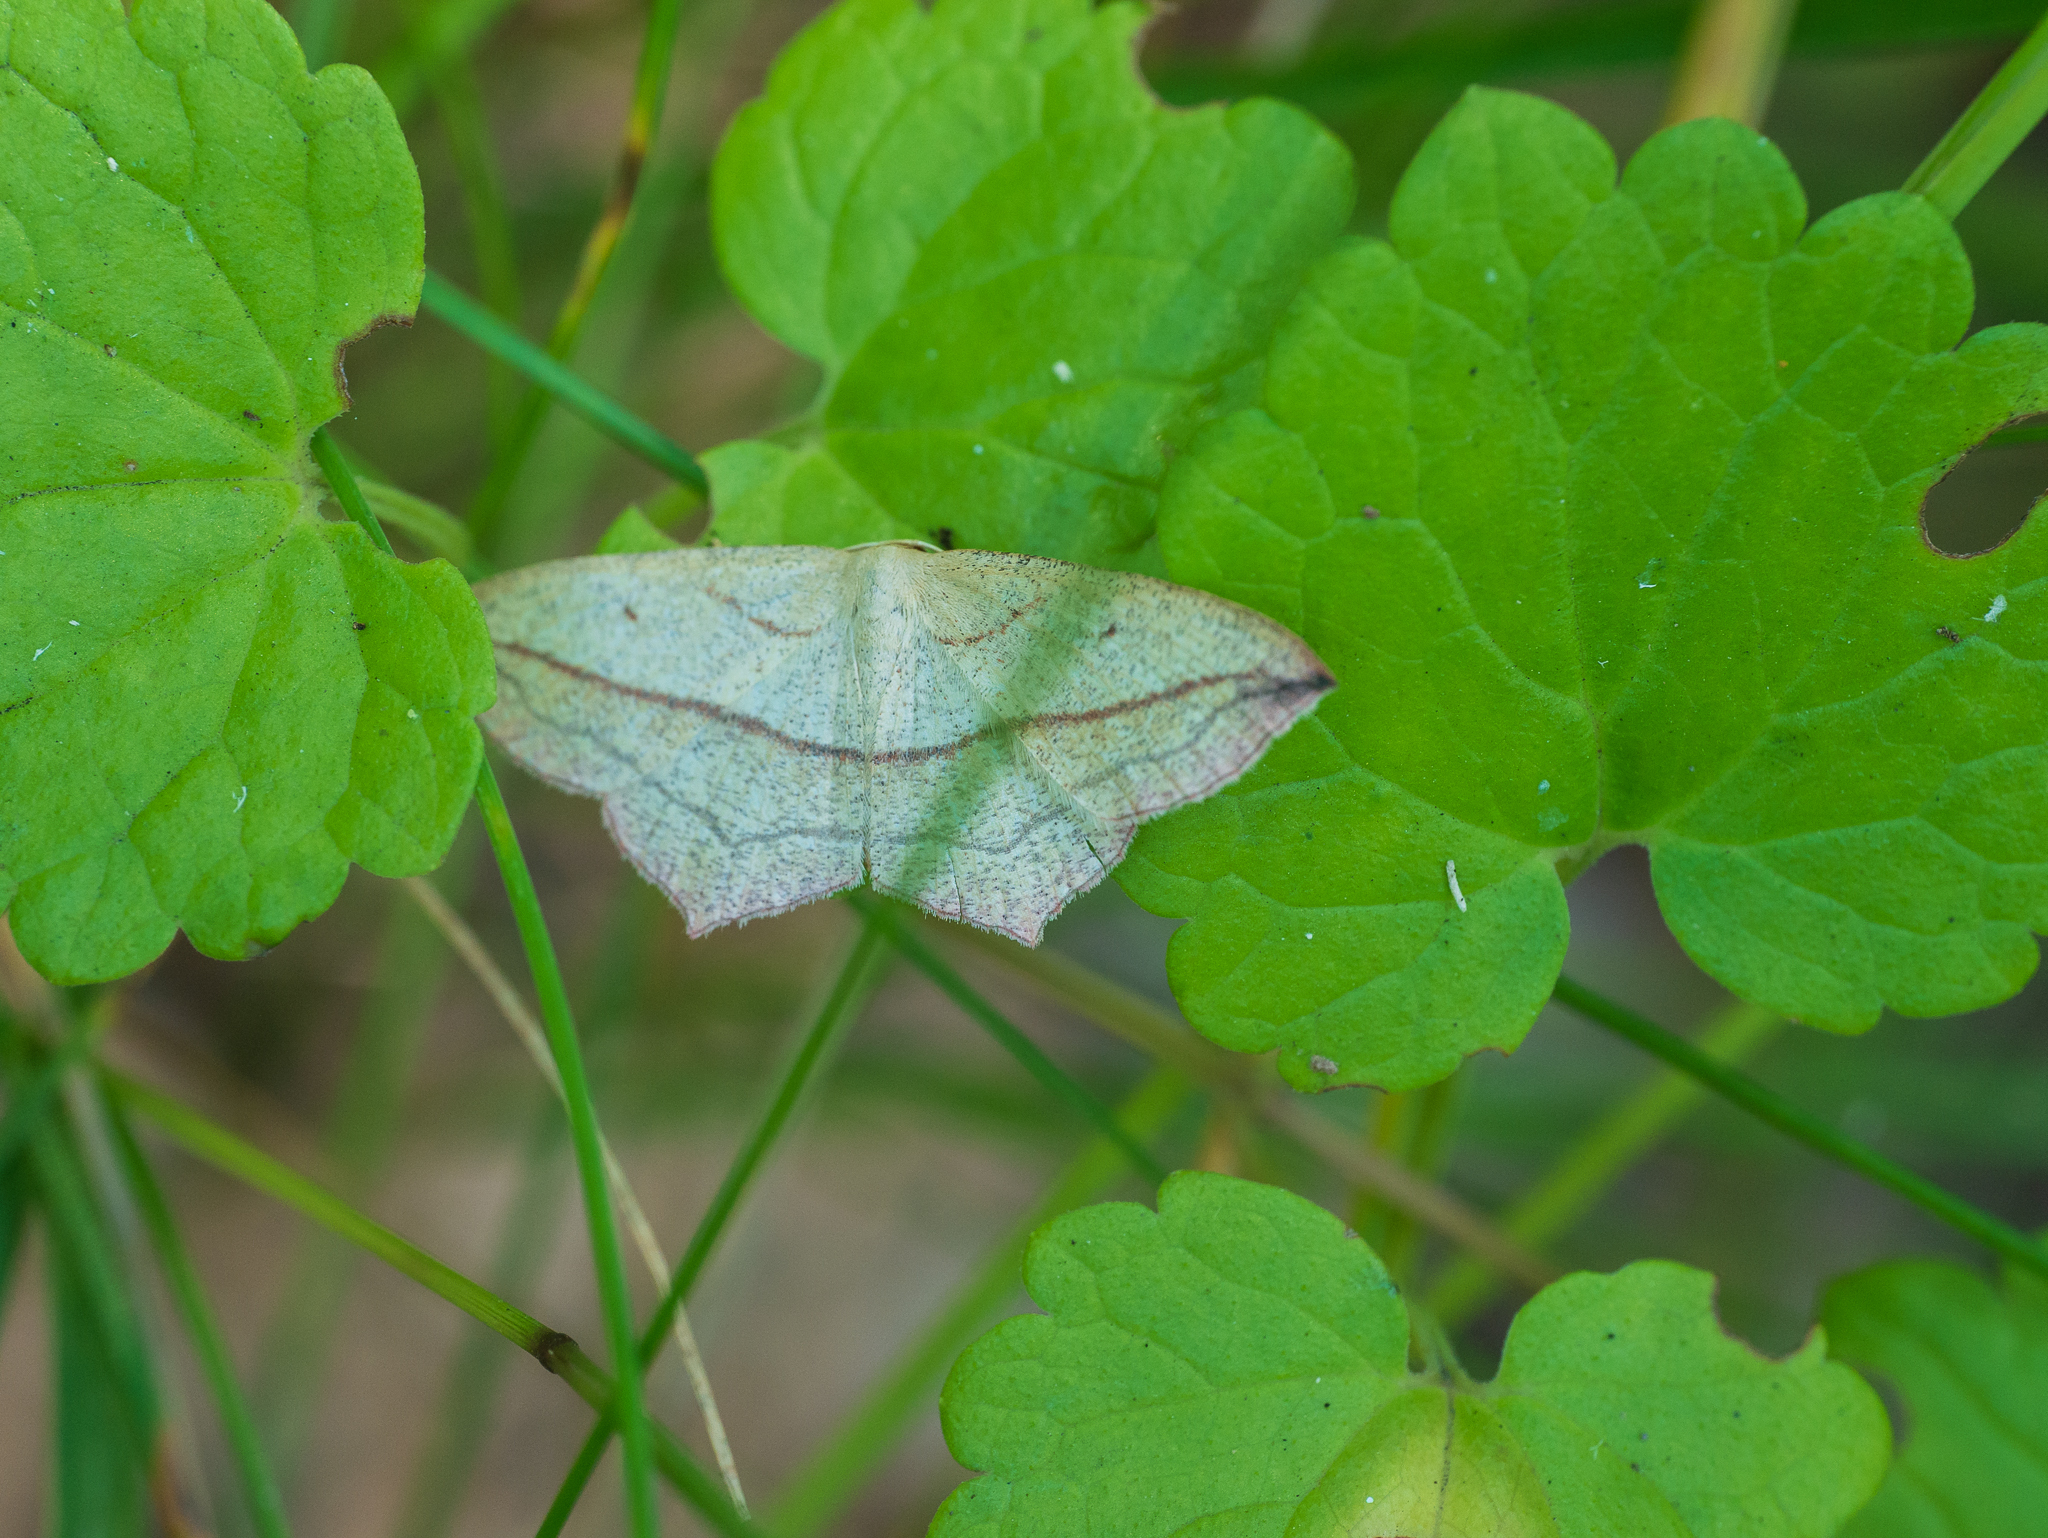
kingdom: Animalia
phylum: Arthropoda
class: Insecta
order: Lepidoptera
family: Geometridae
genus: Timandra
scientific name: Timandra comae
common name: Blood-vein
